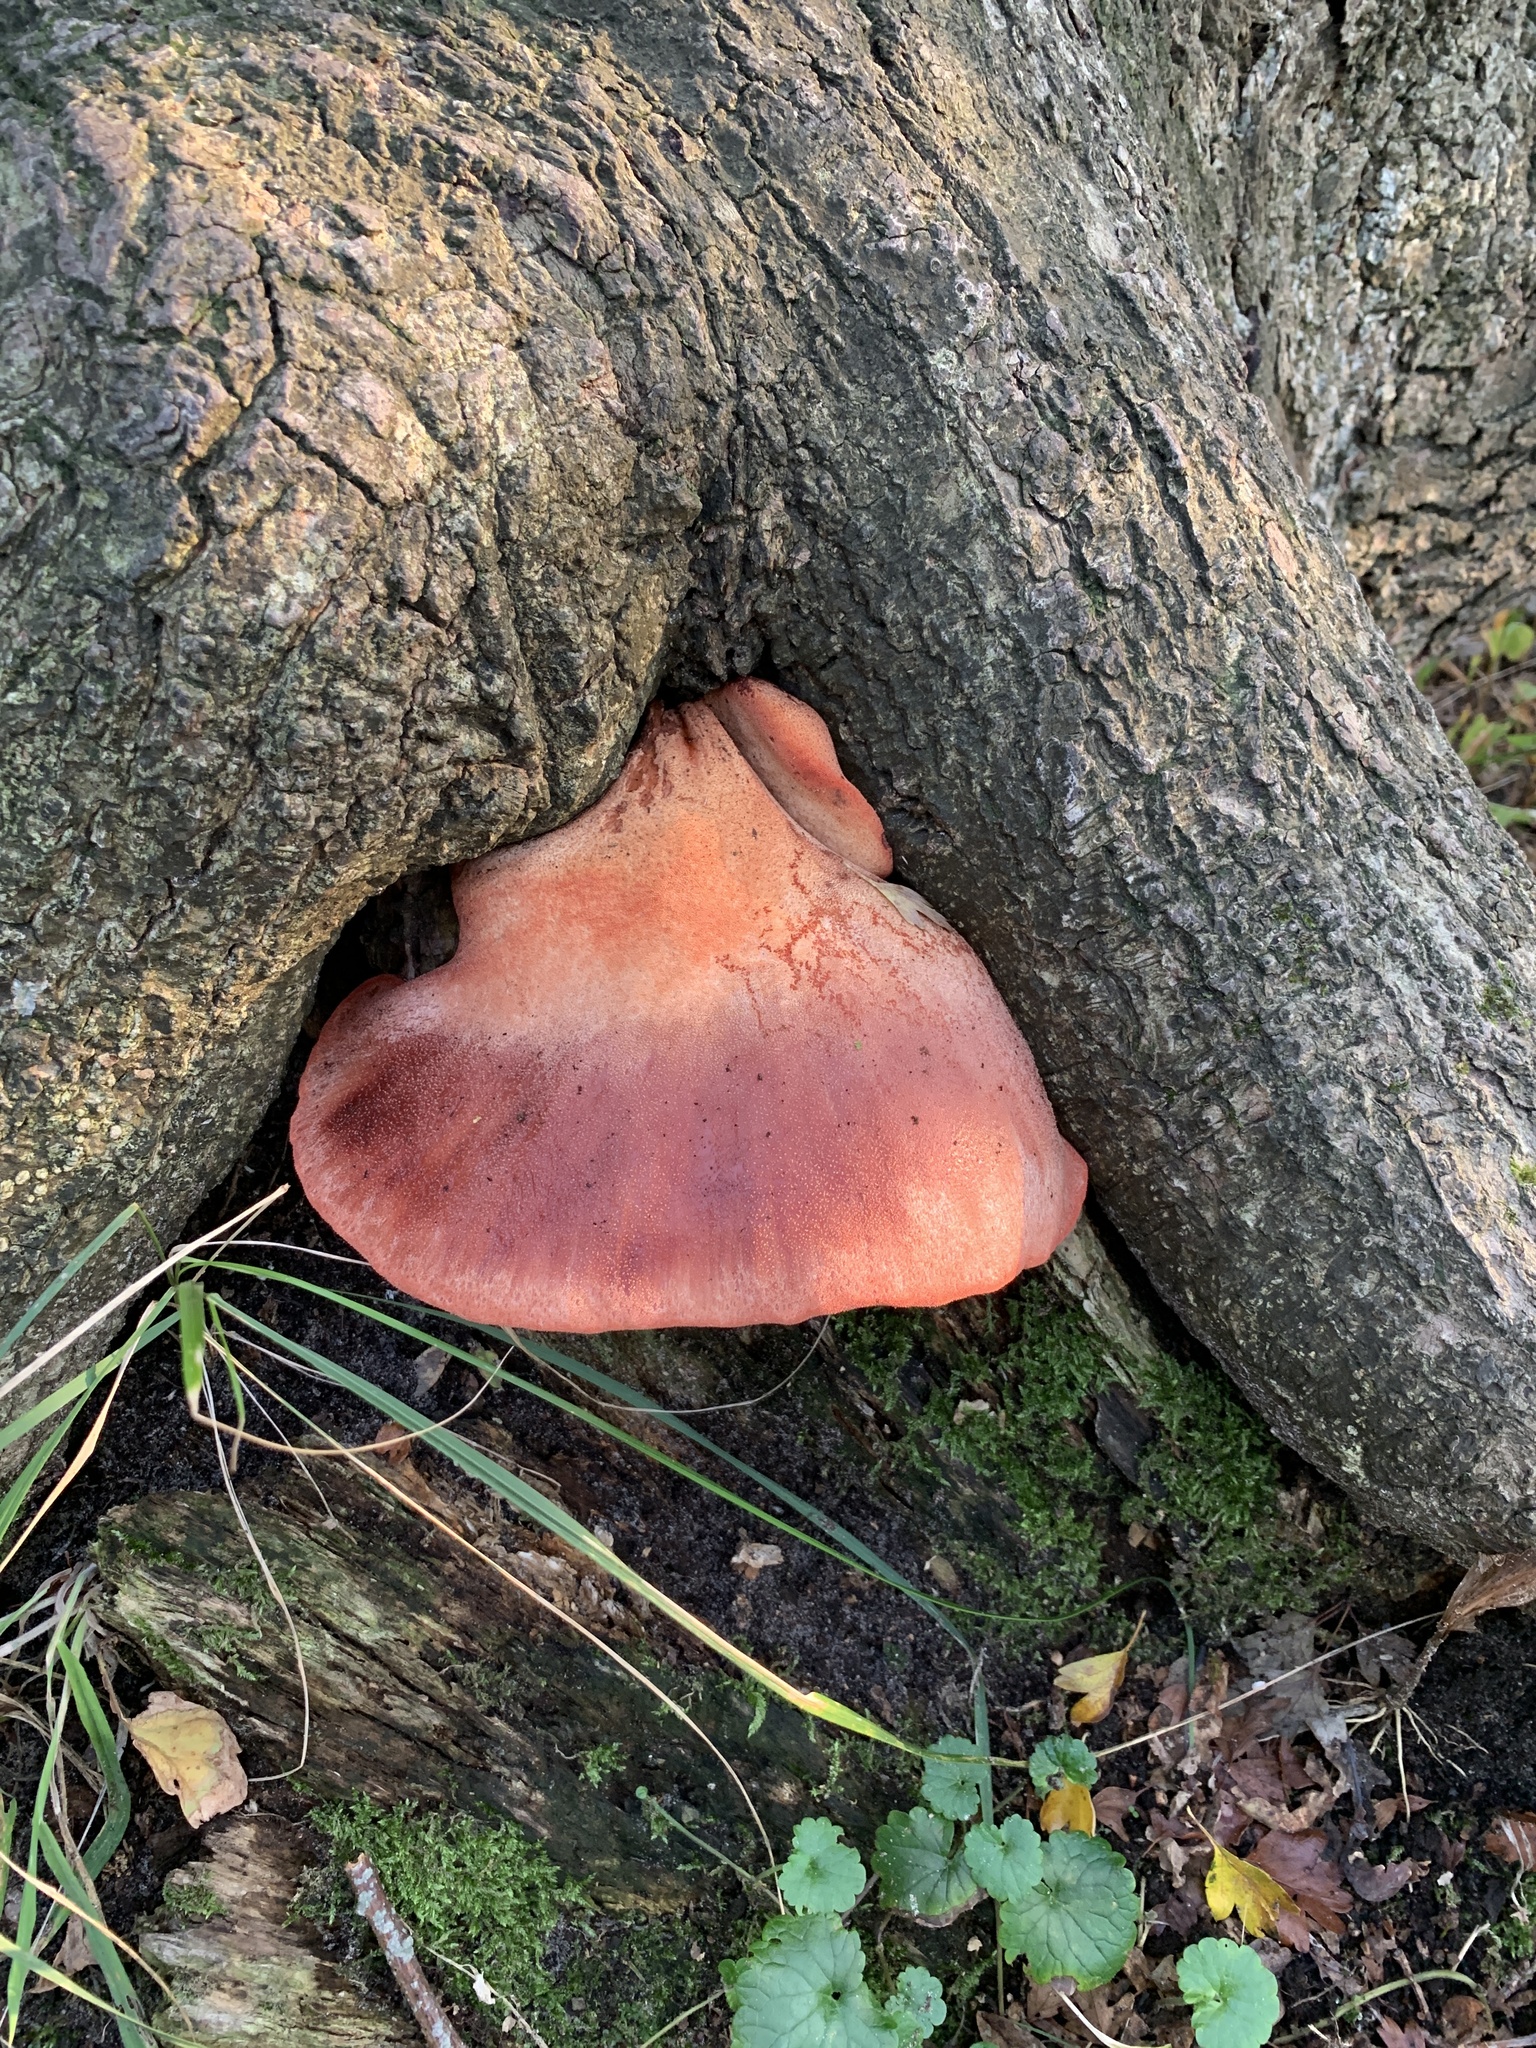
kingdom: Fungi
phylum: Basidiomycota
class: Agaricomycetes
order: Agaricales
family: Fistulinaceae
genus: Fistulina
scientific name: Fistulina hepatica
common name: Beef-steak fungus
